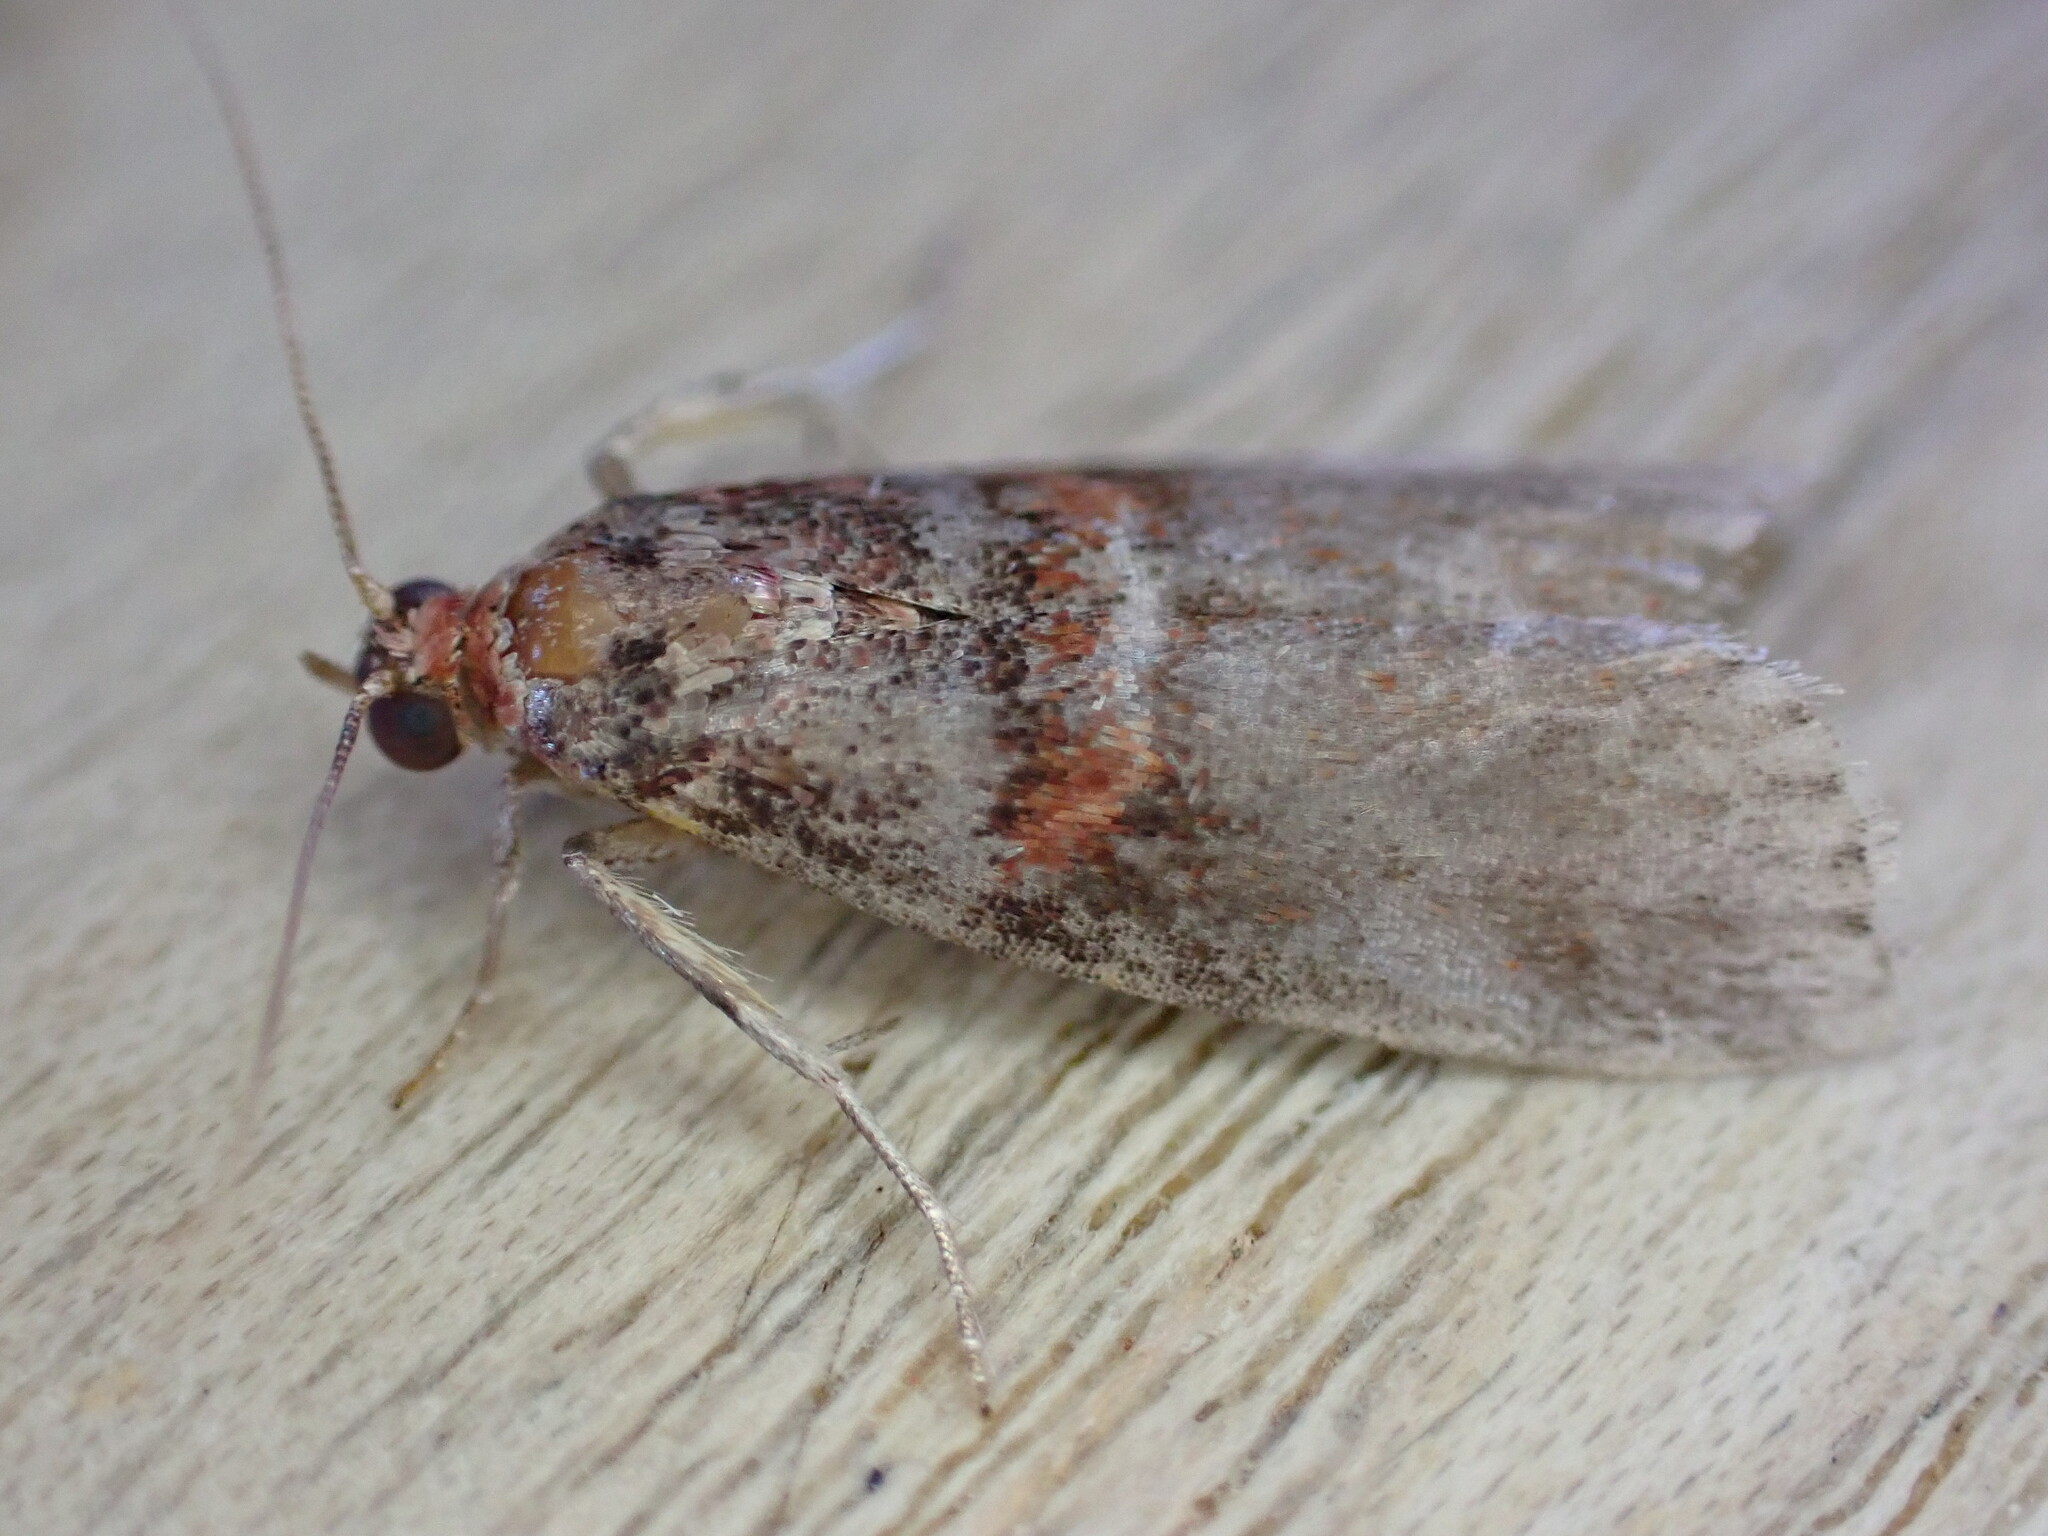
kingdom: Animalia
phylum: Arthropoda
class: Insecta
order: Lepidoptera
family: Pyralidae
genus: Acrobasis
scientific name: Acrobasis advenella
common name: Grey knot-horn
